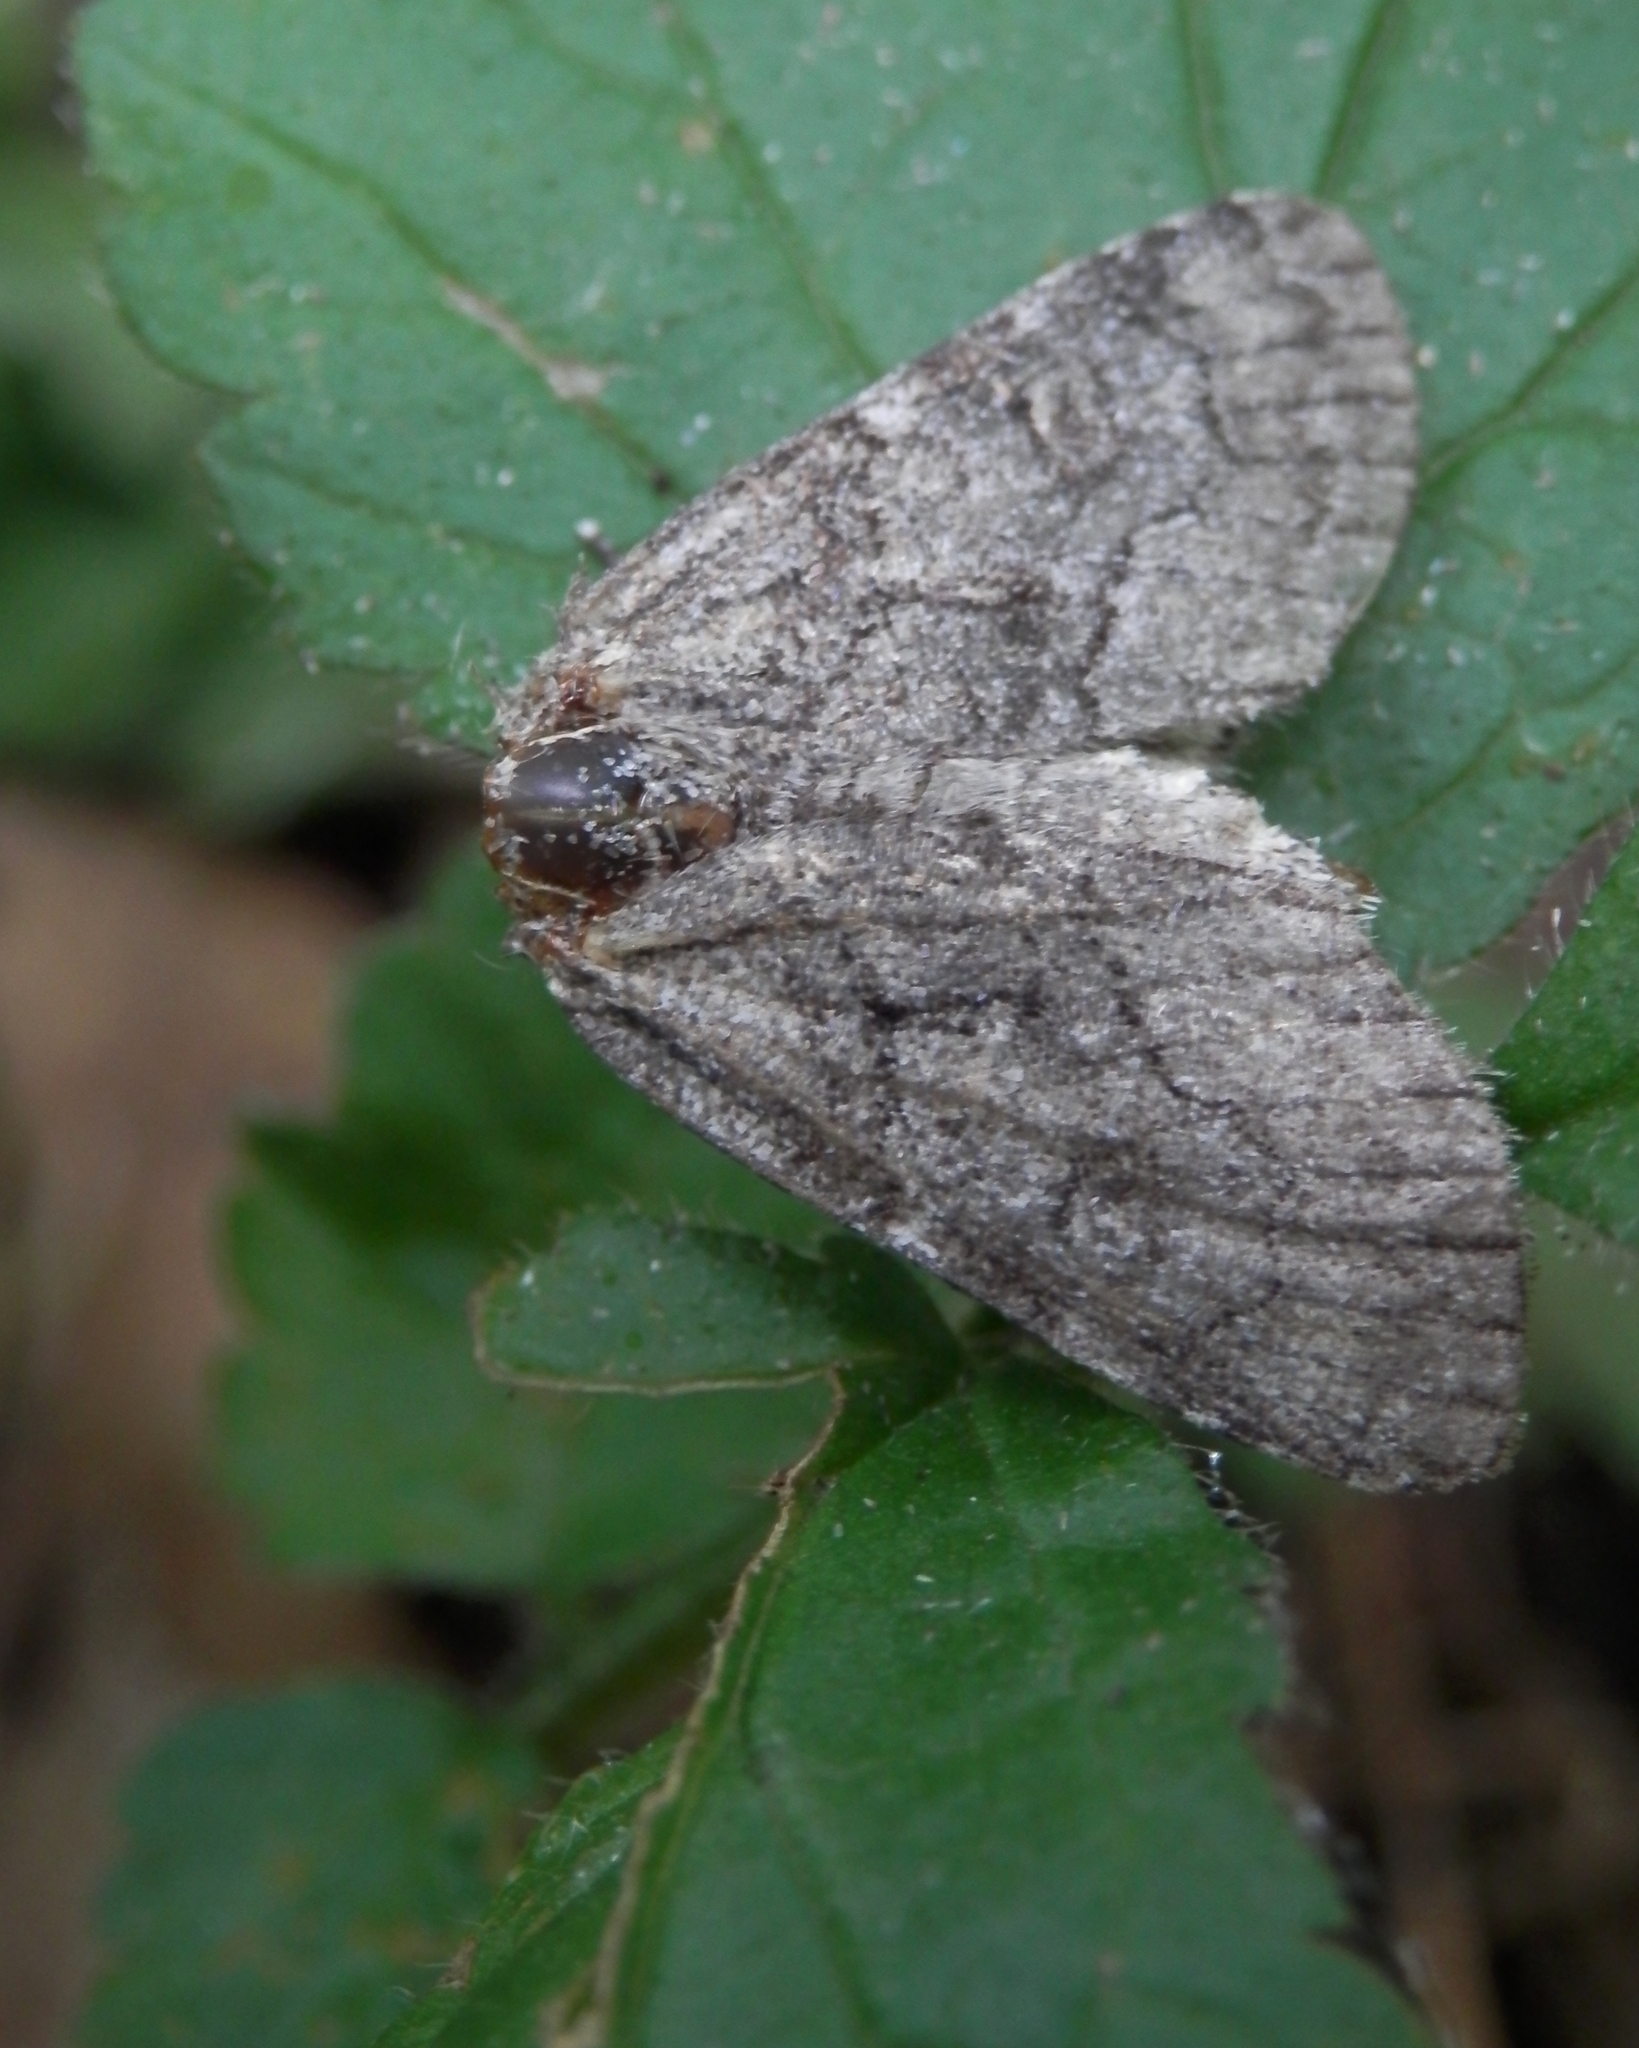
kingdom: Animalia
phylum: Arthropoda
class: Insecta
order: Lepidoptera
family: Noctuidae
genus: Raphia
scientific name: Raphia frater
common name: Brother
